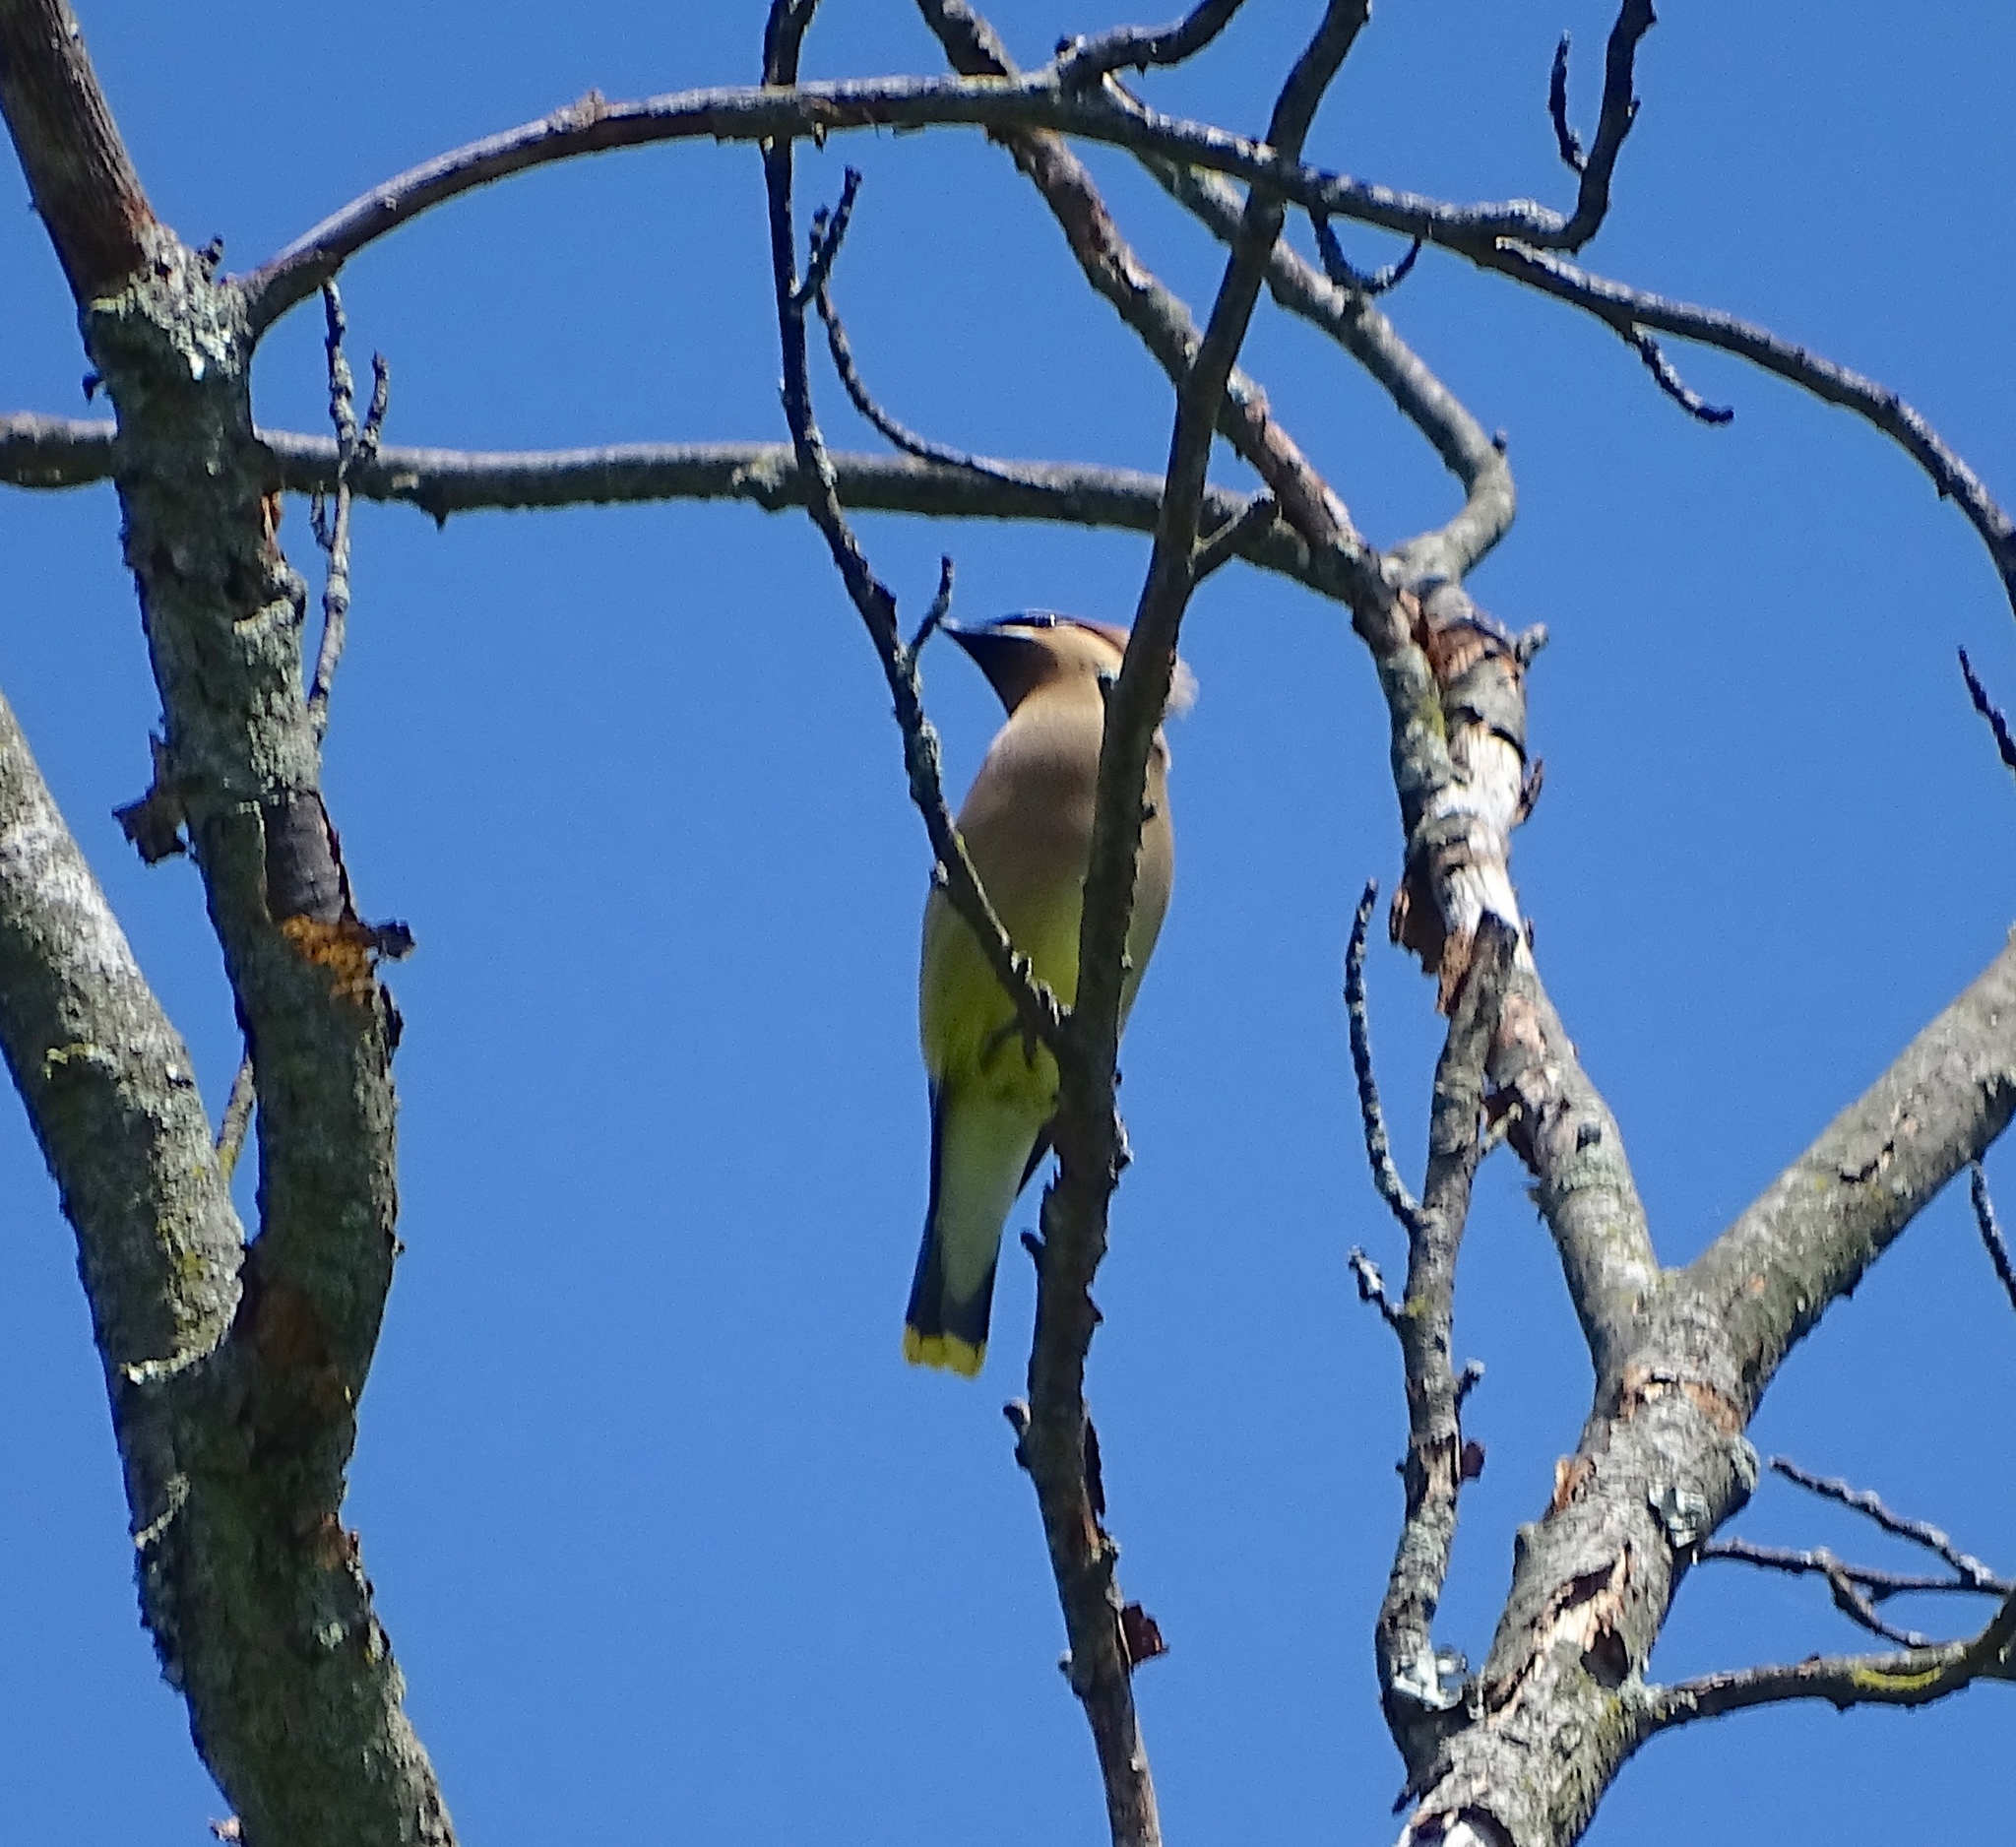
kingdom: Animalia
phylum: Chordata
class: Aves
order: Passeriformes
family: Bombycillidae
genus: Bombycilla
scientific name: Bombycilla cedrorum
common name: Cedar waxwing
